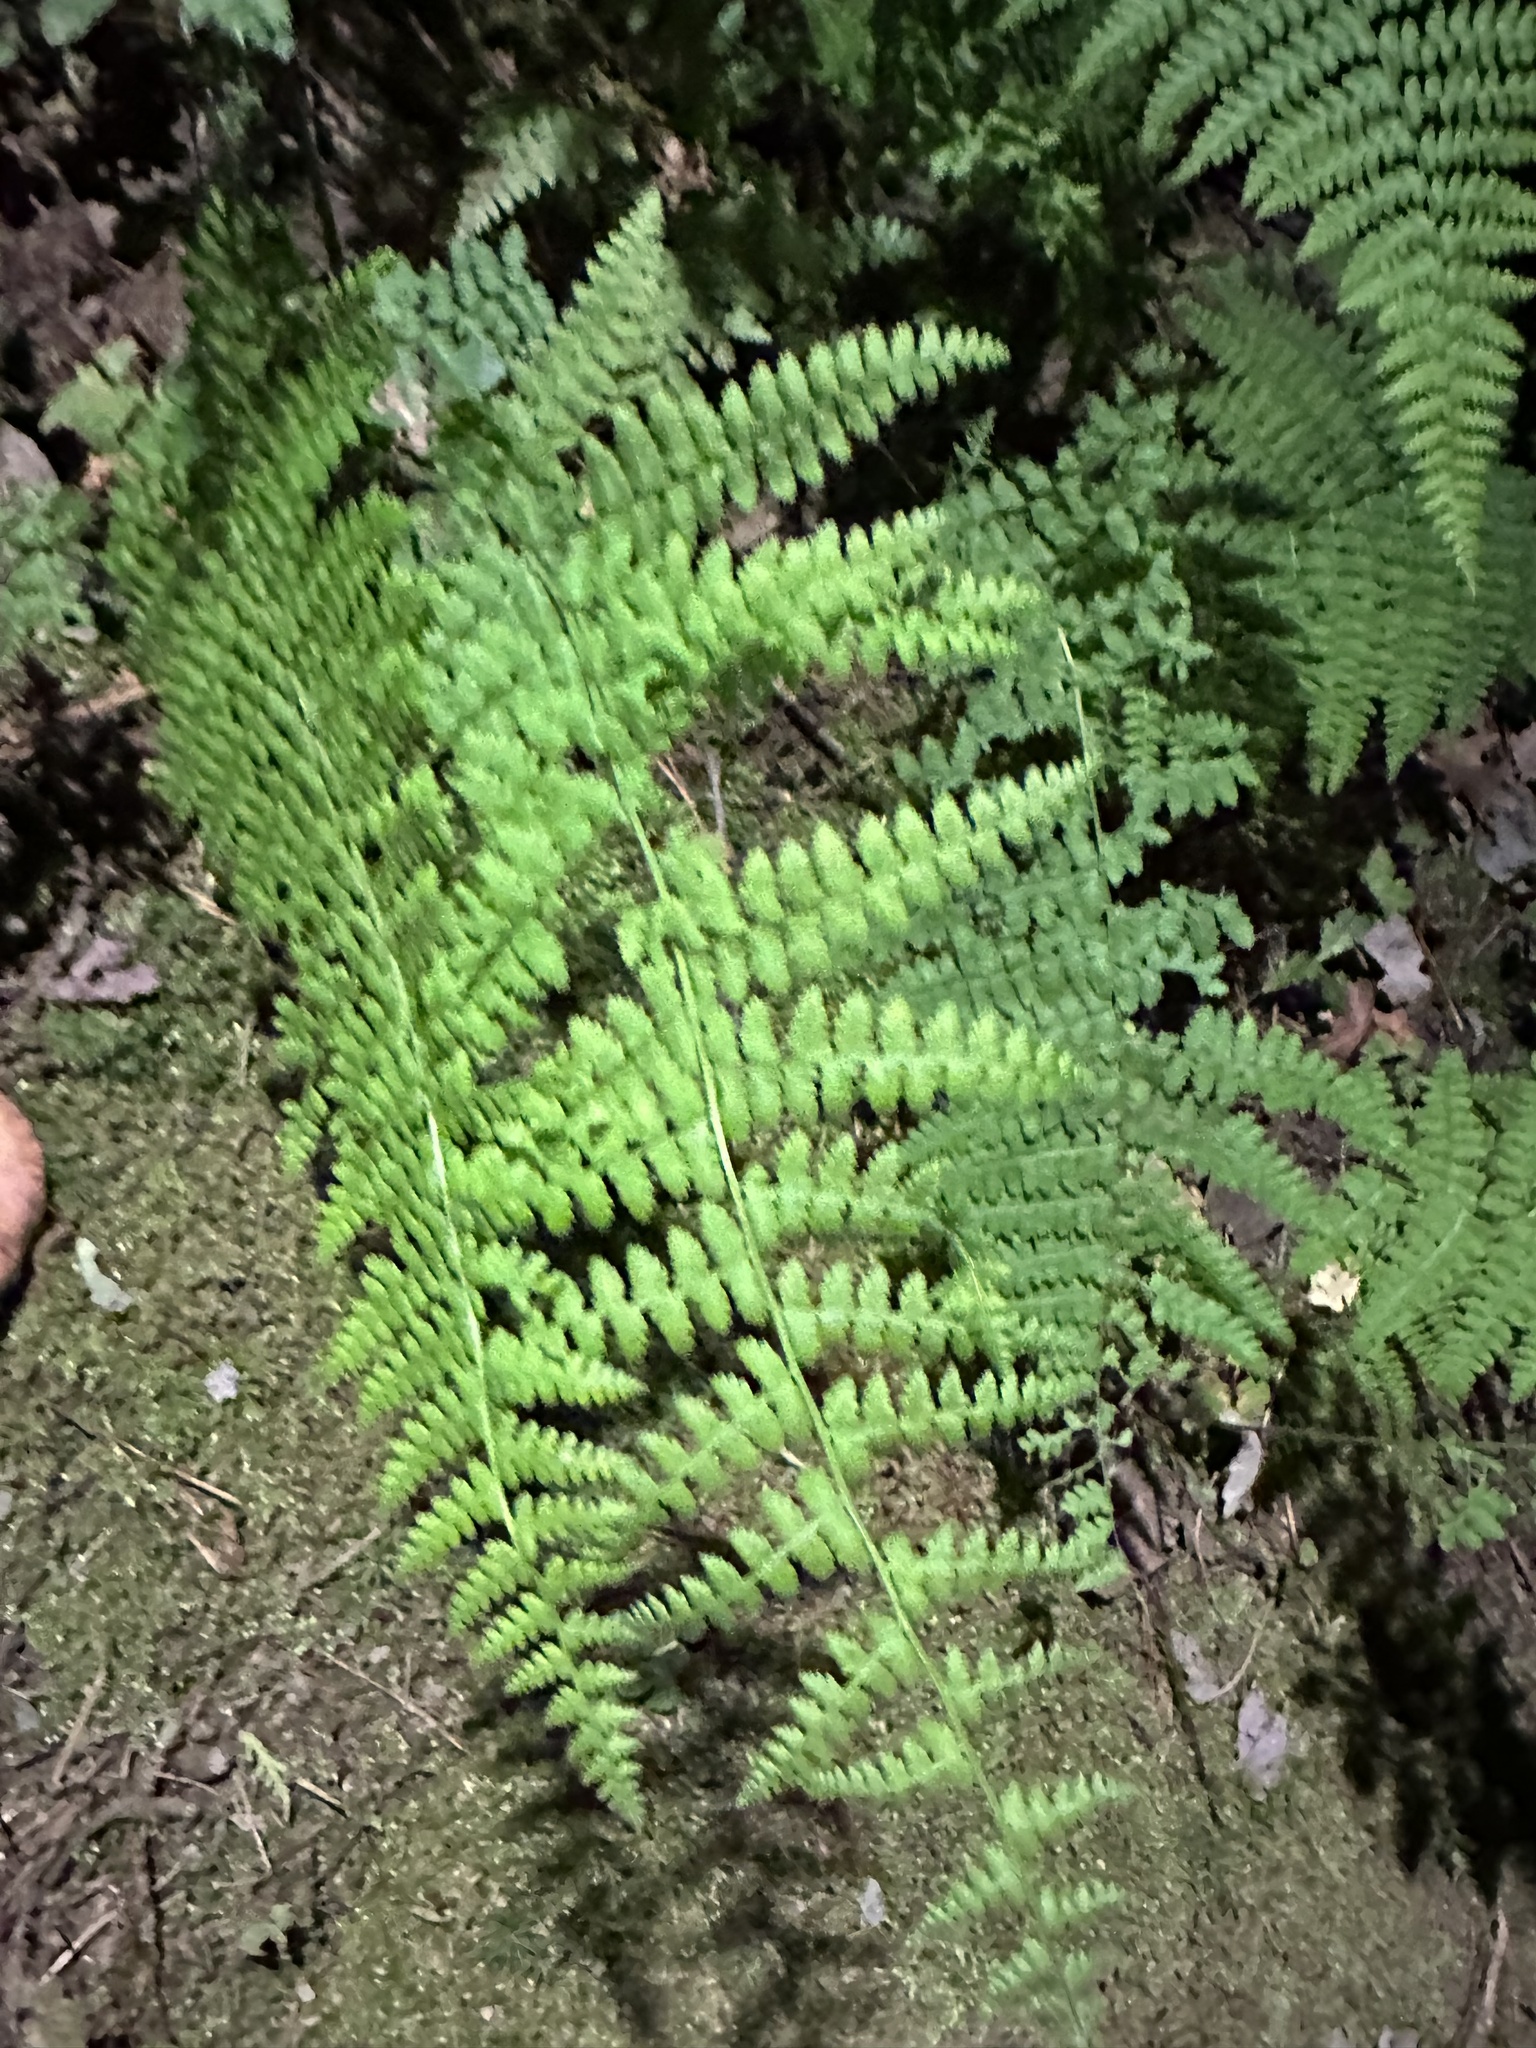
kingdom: Plantae
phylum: Tracheophyta
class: Polypodiopsida
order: Polypodiales
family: Dennstaedtiaceae
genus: Sitobolium
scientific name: Sitobolium punctilobum
